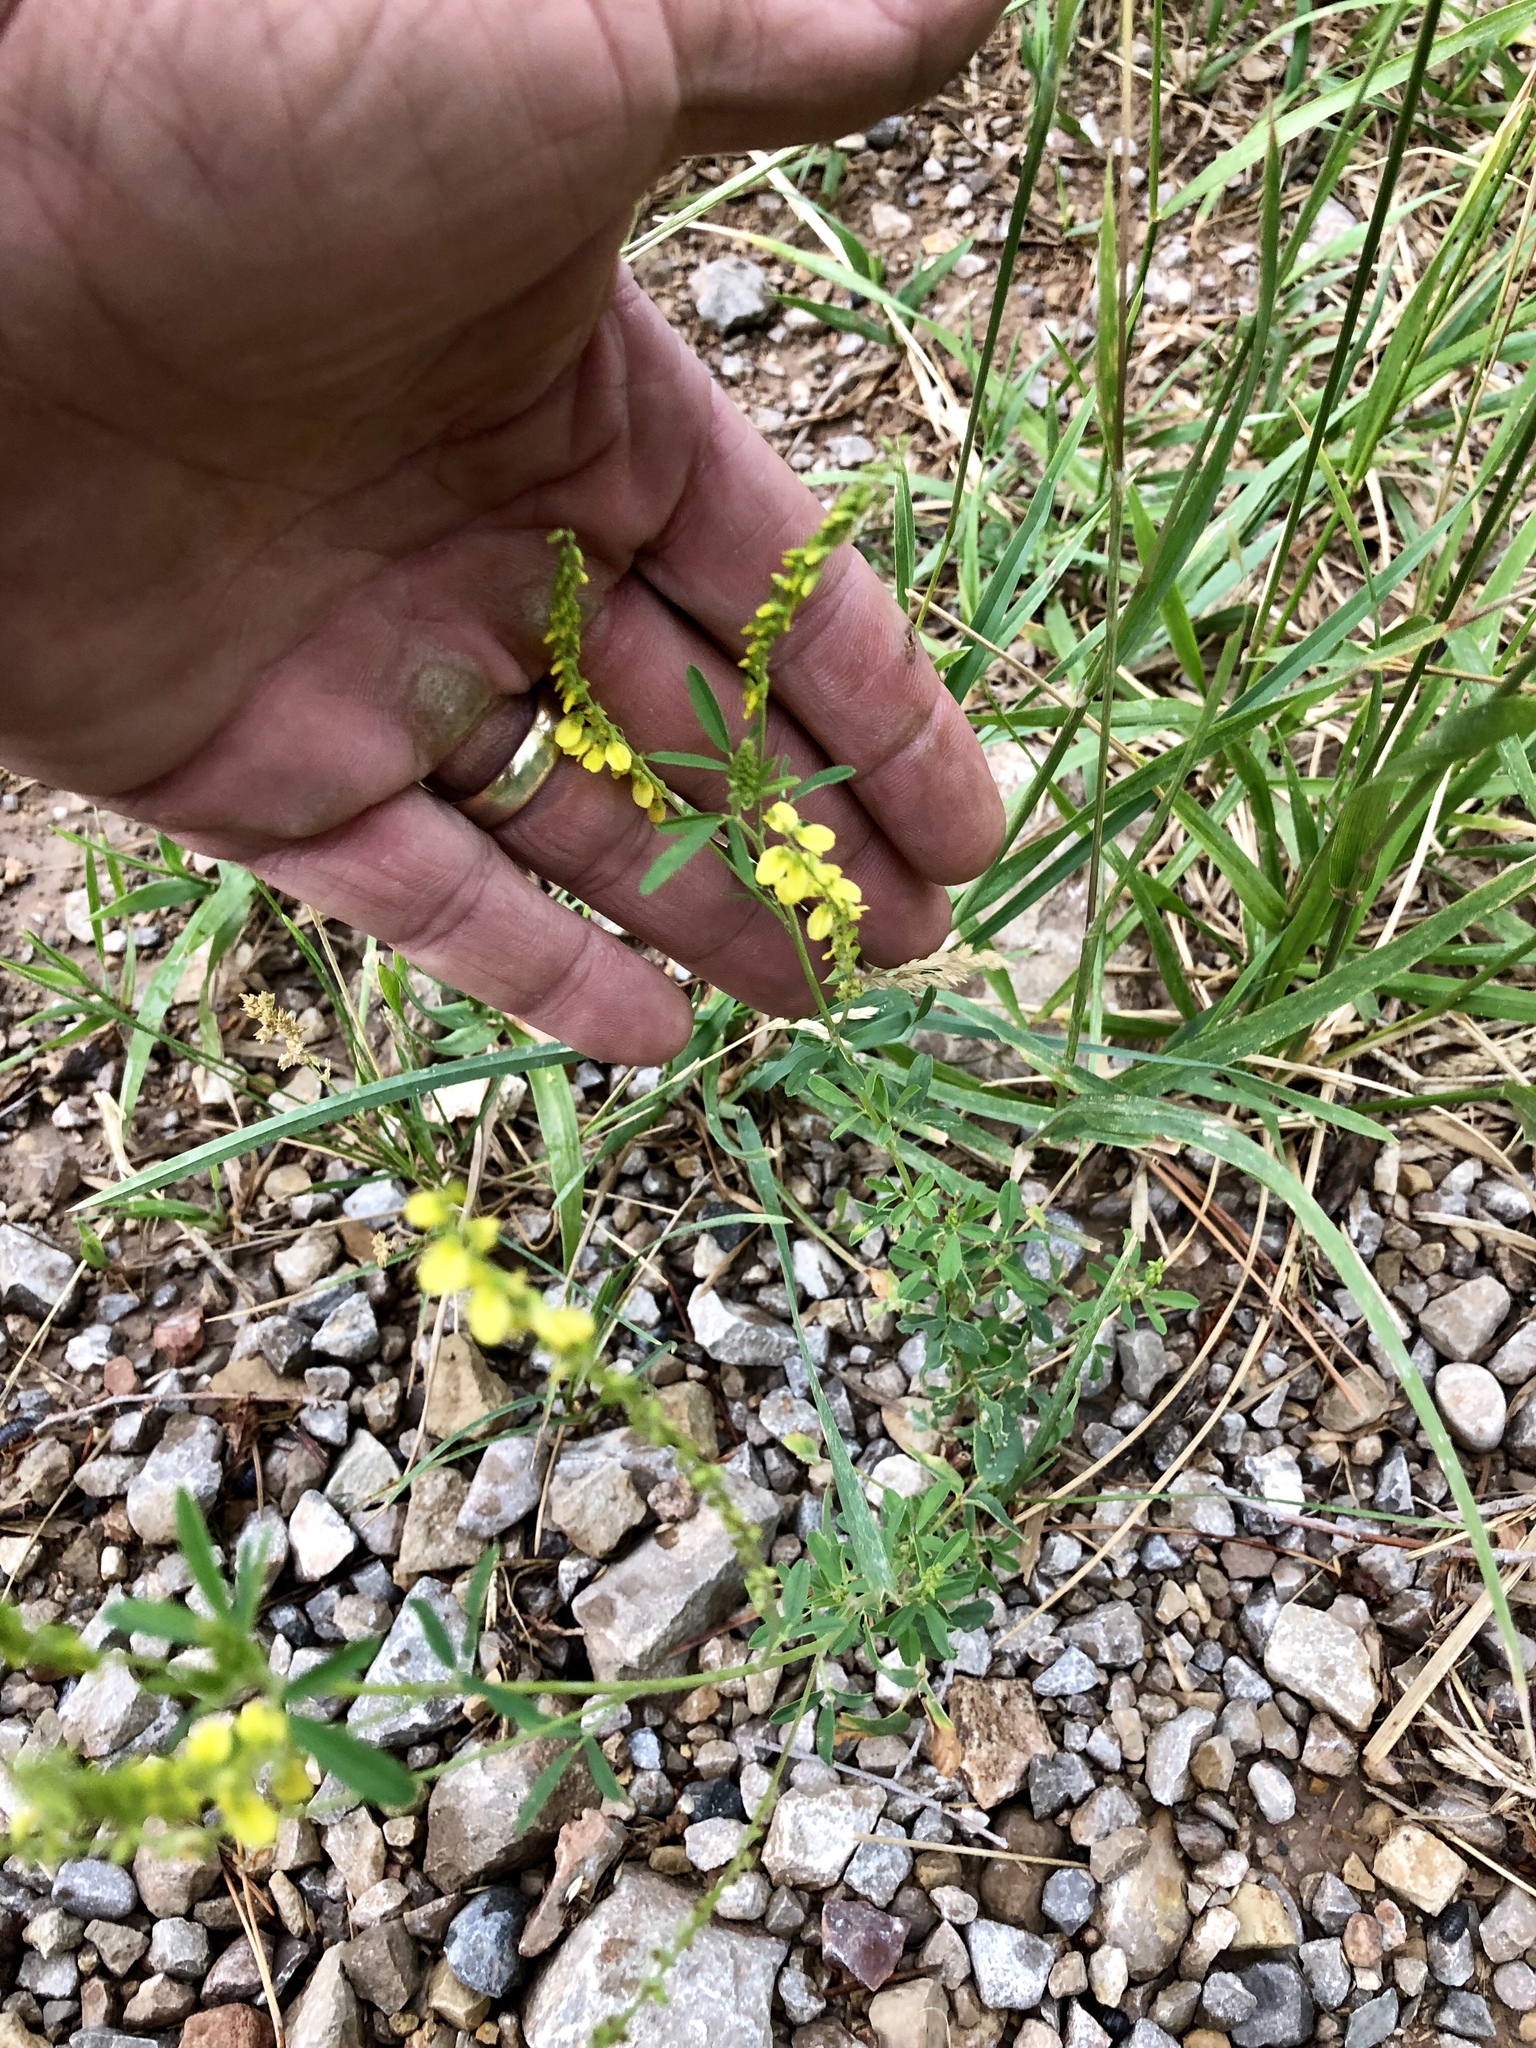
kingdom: Plantae
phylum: Tracheophyta
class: Magnoliopsida
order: Fabales
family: Fabaceae
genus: Melilotus
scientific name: Melilotus officinalis
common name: Sweetclover
